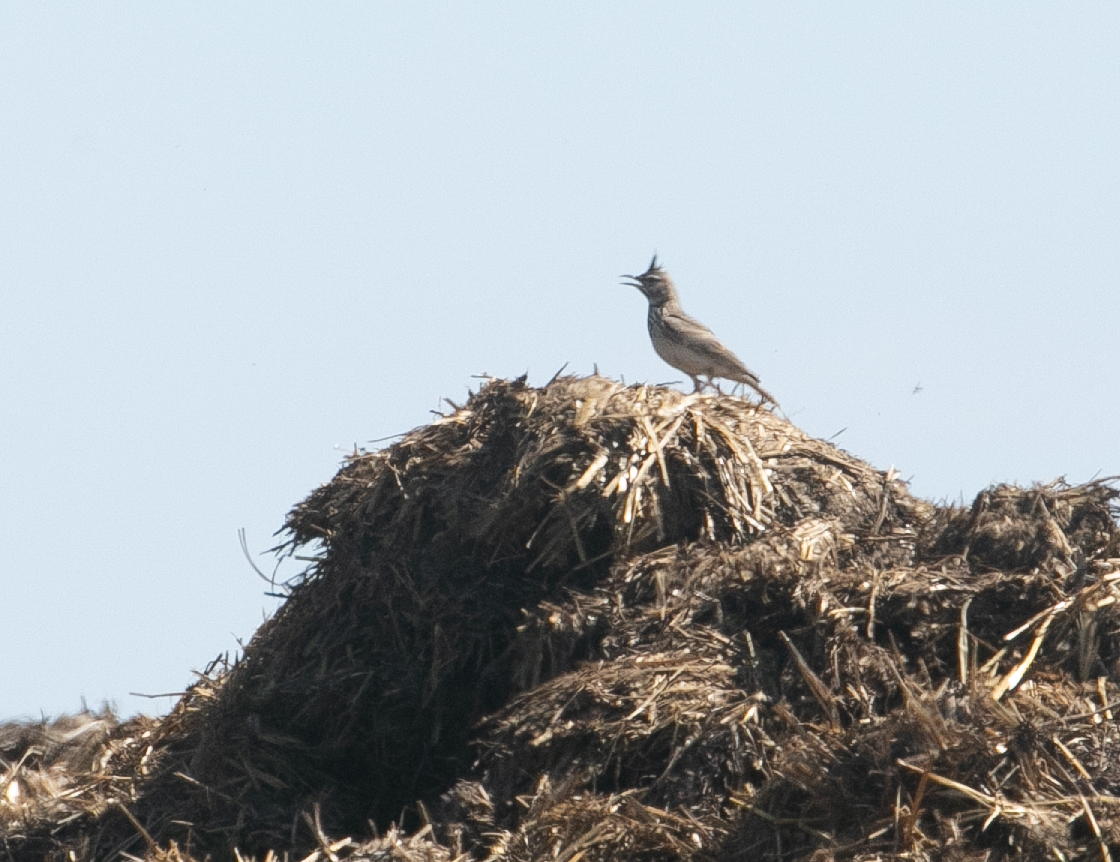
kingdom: Animalia
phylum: Chordata
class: Aves
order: Passeriformes
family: Alaudidae
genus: Galerida
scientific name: Galerida cristata
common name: Crested lark
